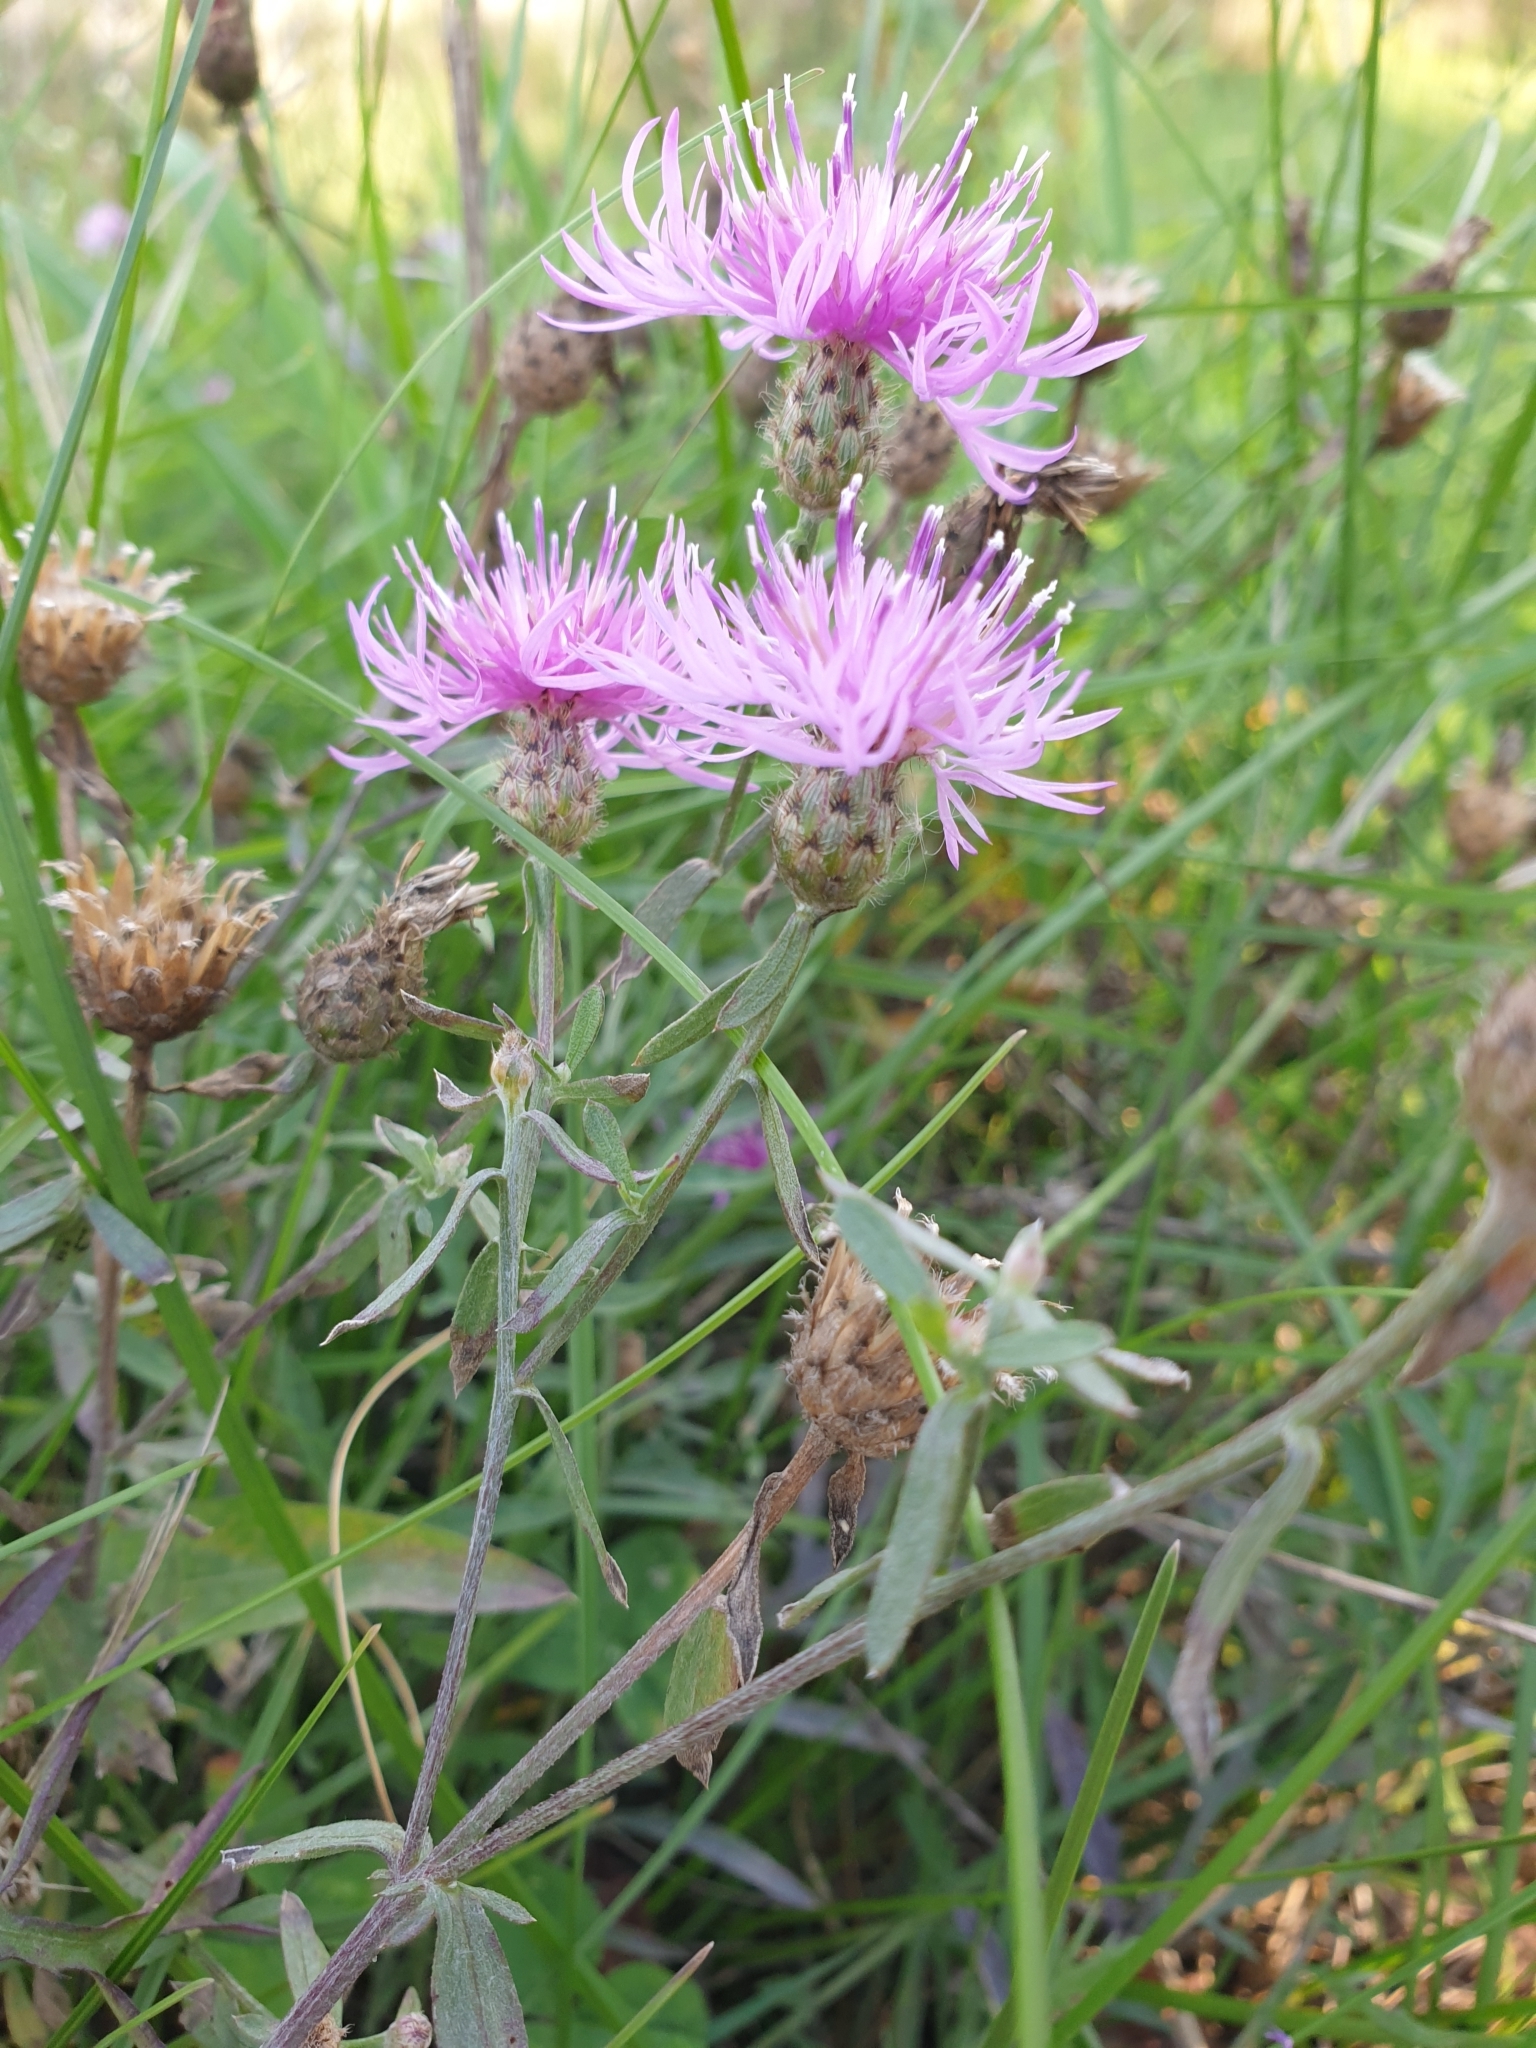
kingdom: Plantae
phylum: Tracheophyta
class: Magnoliopsida
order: Asterales
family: Asteraceae
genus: Centaurea
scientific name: Centaurea stoebe
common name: Spotted knapweed
